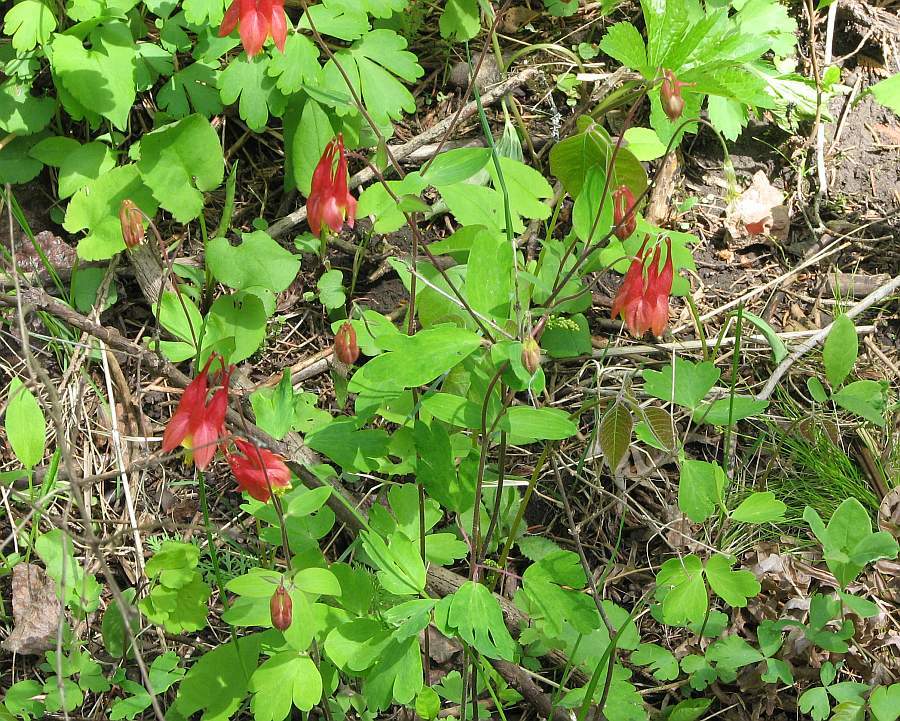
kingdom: Plantae
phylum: Tracheophyta
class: Magnoliopsida
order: Ranunculales
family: Ranunculaceae
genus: Aquilegia
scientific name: Aquilegia canadensis
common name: American columbine
